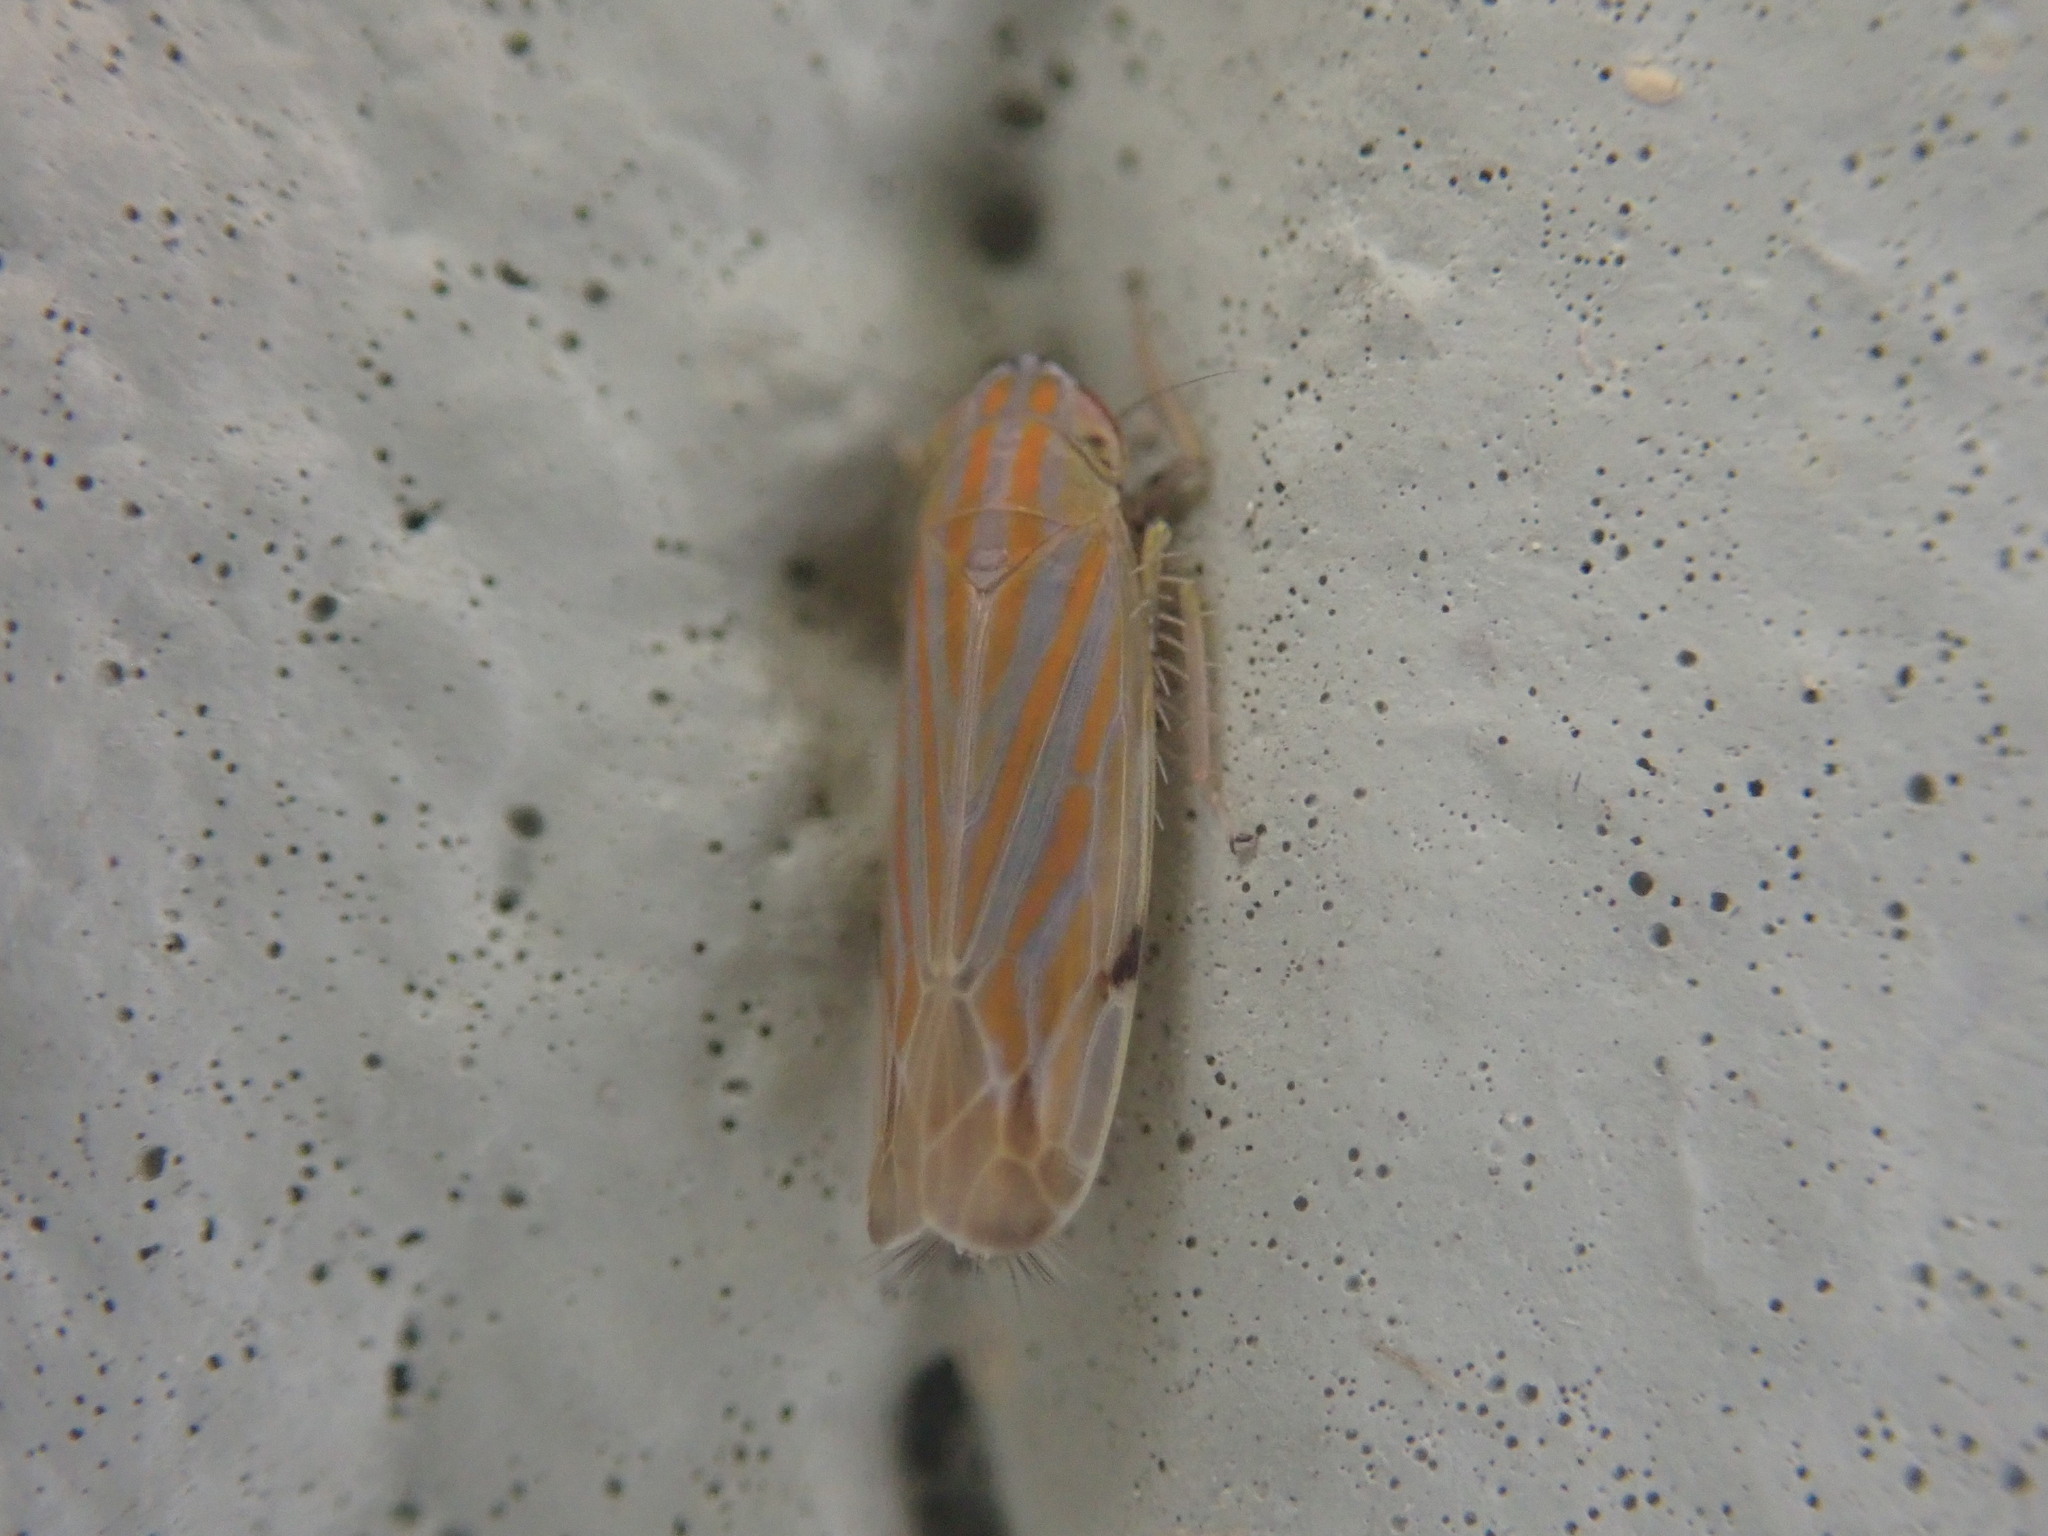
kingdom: Animalia
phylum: Arthropoda
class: Insecta
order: Hemiptera
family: Cicadellidae
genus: Deltanus
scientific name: Deltanus texanus
